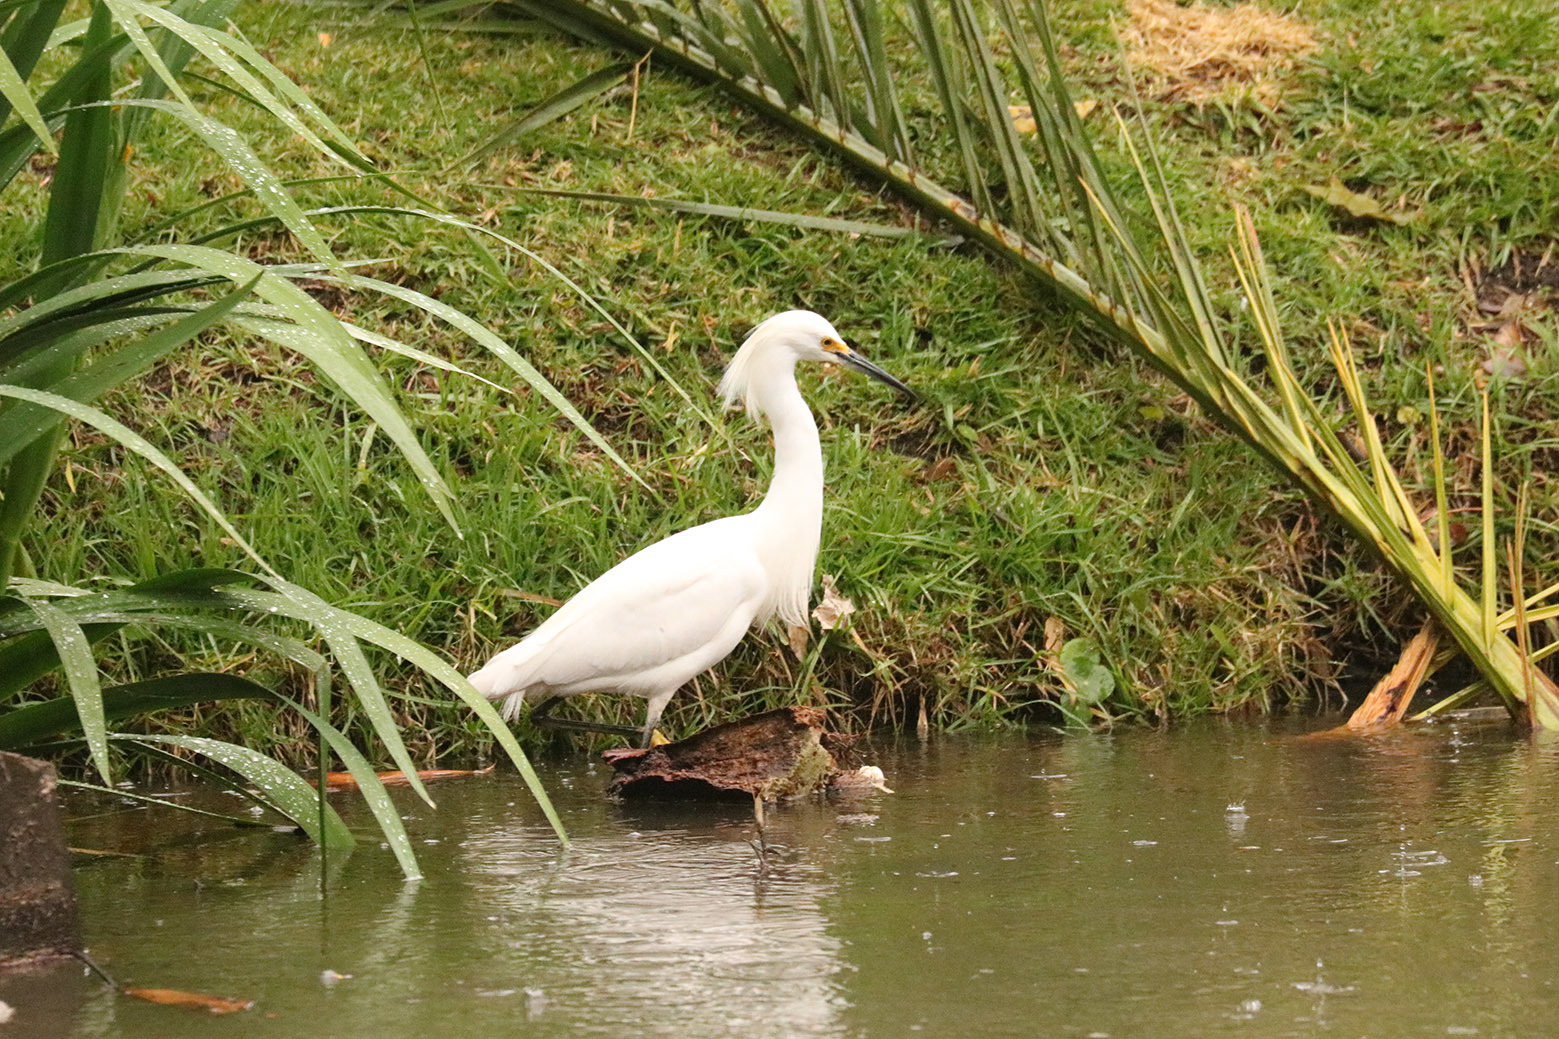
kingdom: Animalia
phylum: Chordata
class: Aves
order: Pelecaniformes
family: Ardeidae
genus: Egretta
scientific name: Egretta thula
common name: Snowy egret
